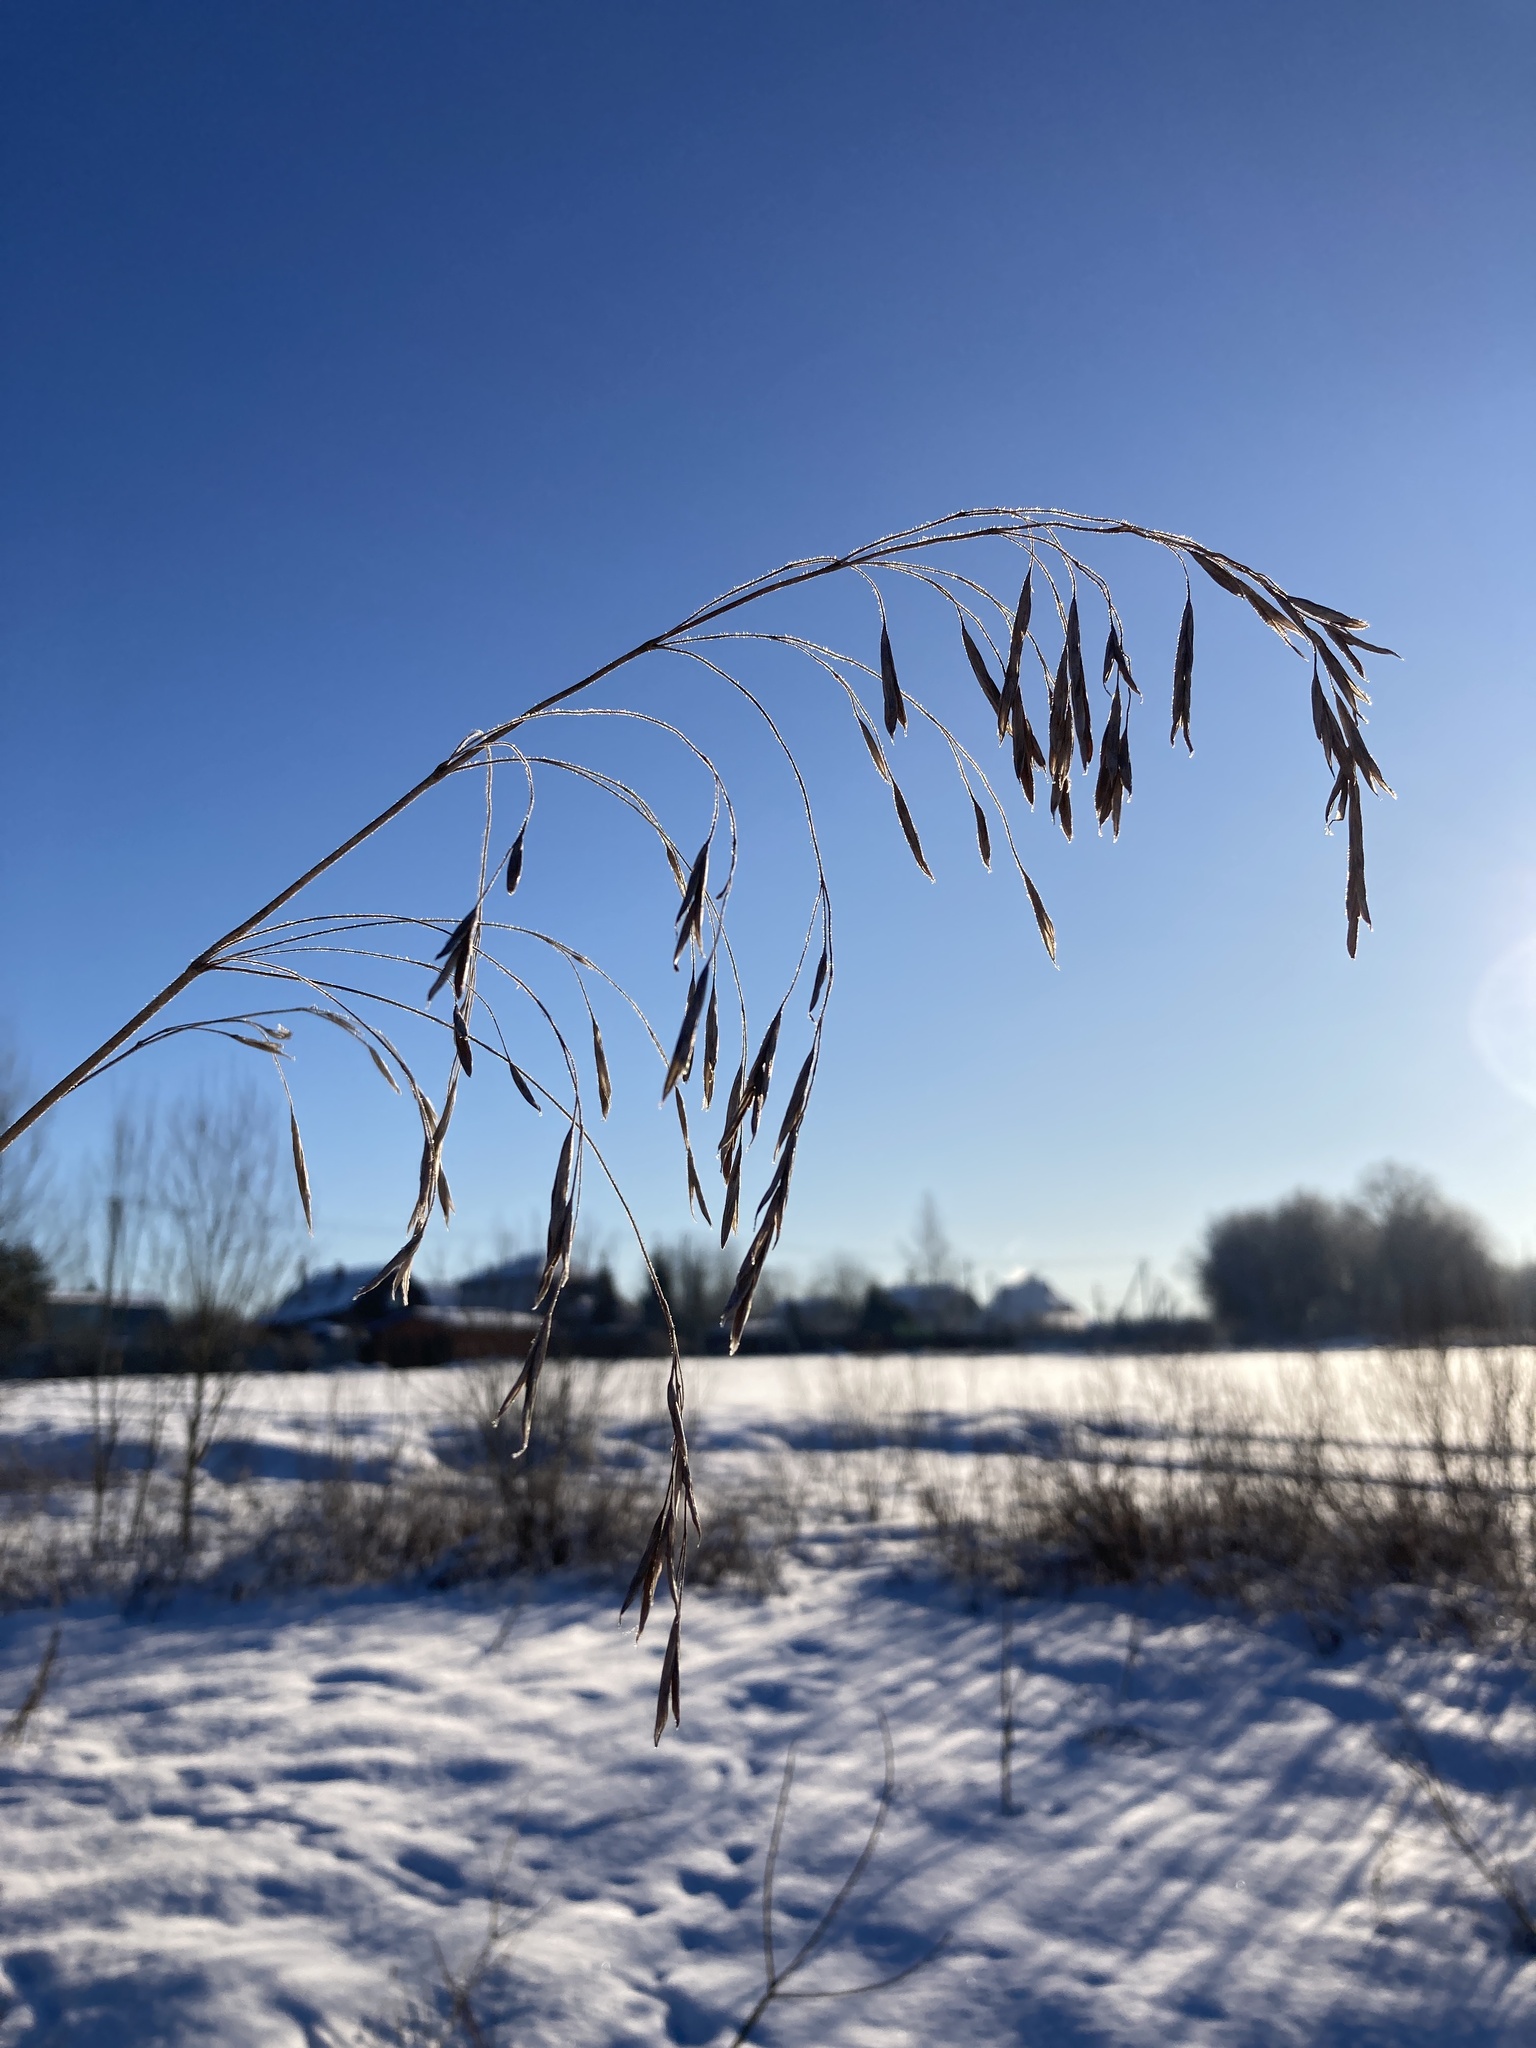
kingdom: Plantae
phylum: Tracheophyta
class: Liliopsida
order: Poales
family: Poaceae
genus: Bromus
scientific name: Bromus inermis
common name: Smooth brome
